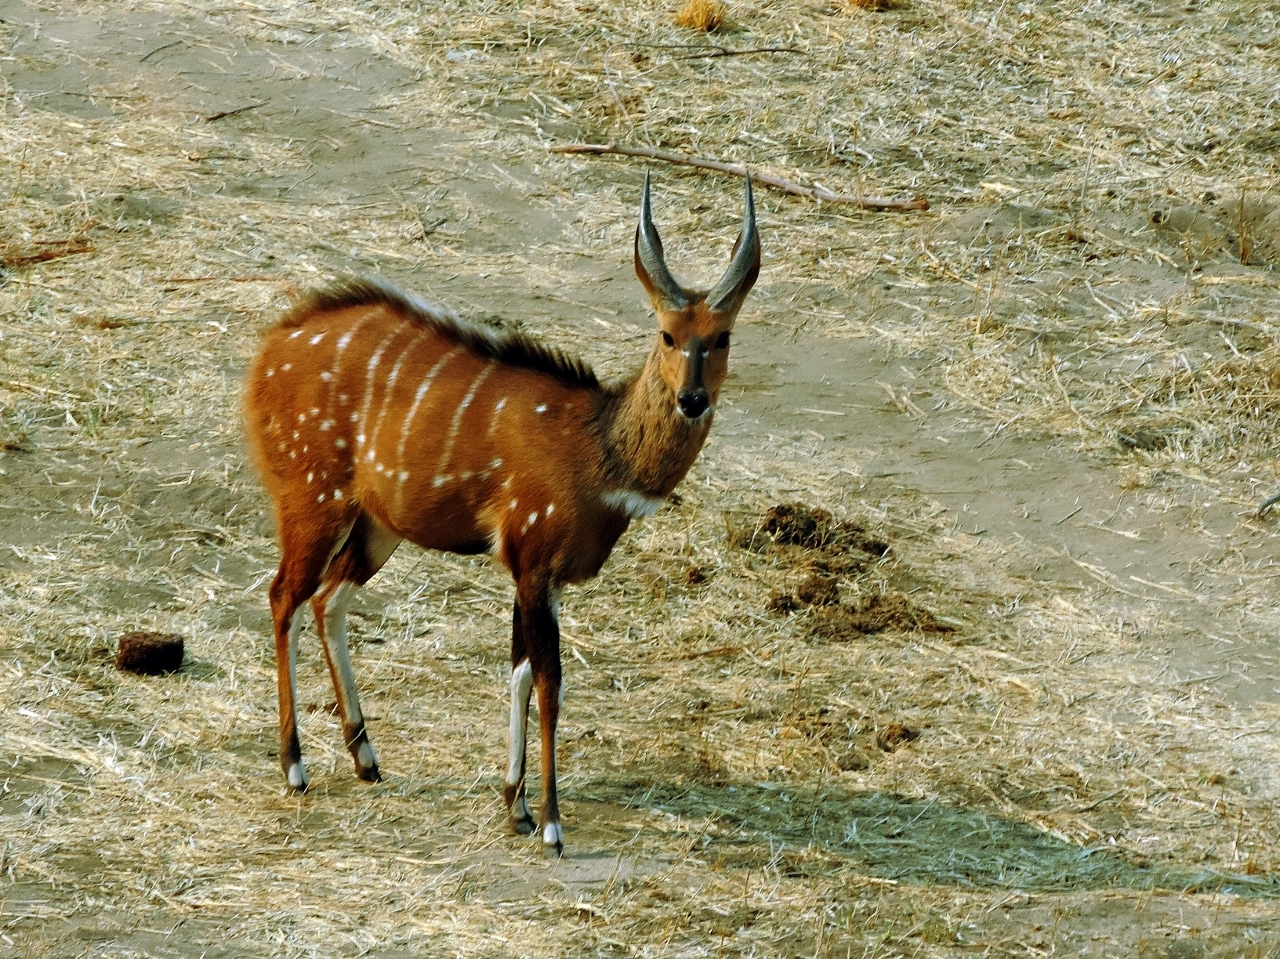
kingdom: Animalia
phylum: Chordata
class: Mammalia
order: Artiodactyla
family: Bovidae
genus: Tragelaphus
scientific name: Tragelaphus scriptus
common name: Bushbuck
